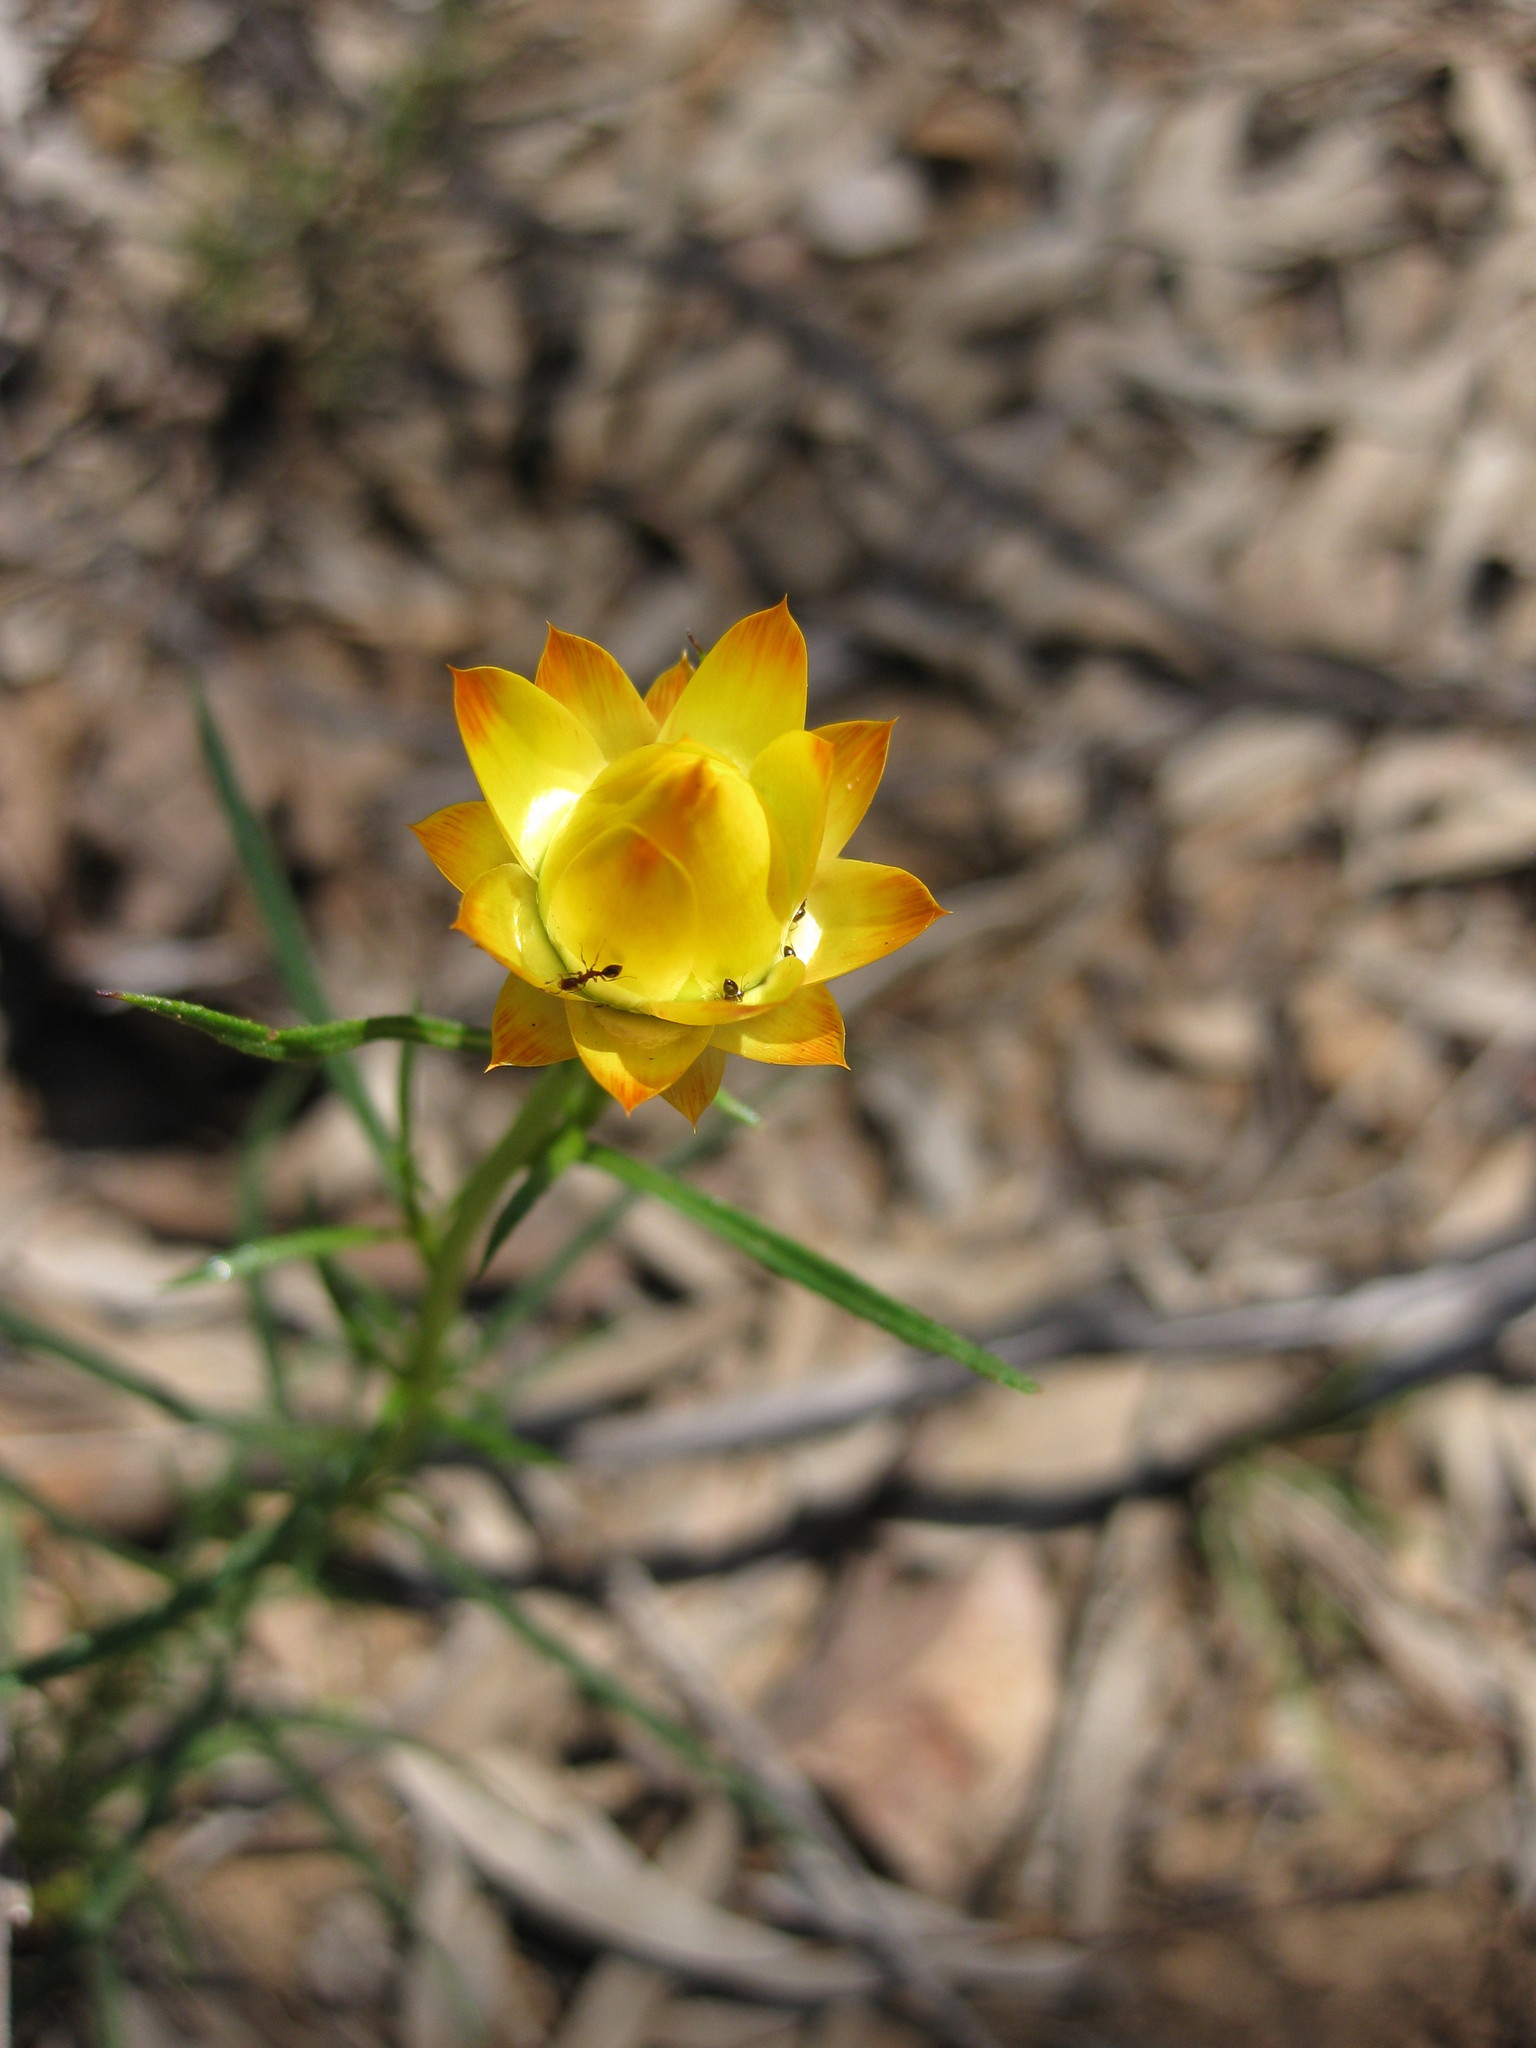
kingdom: Plantae
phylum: Tracheophyta
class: Magnoliopsida
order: Asterales
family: Asteraceae
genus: Xerochrysum
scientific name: Xerochrysum viscosum
